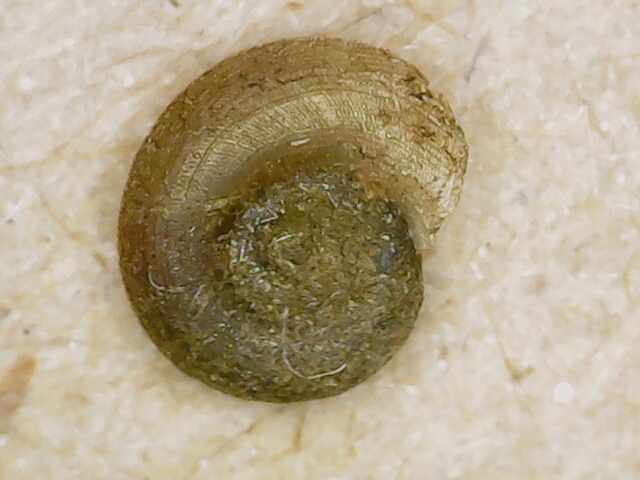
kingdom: Animalia
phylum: Mollusca
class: Gastropoda
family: Planorbidae
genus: Gyraulus
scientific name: Gyraulus albus
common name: White ramshorn
